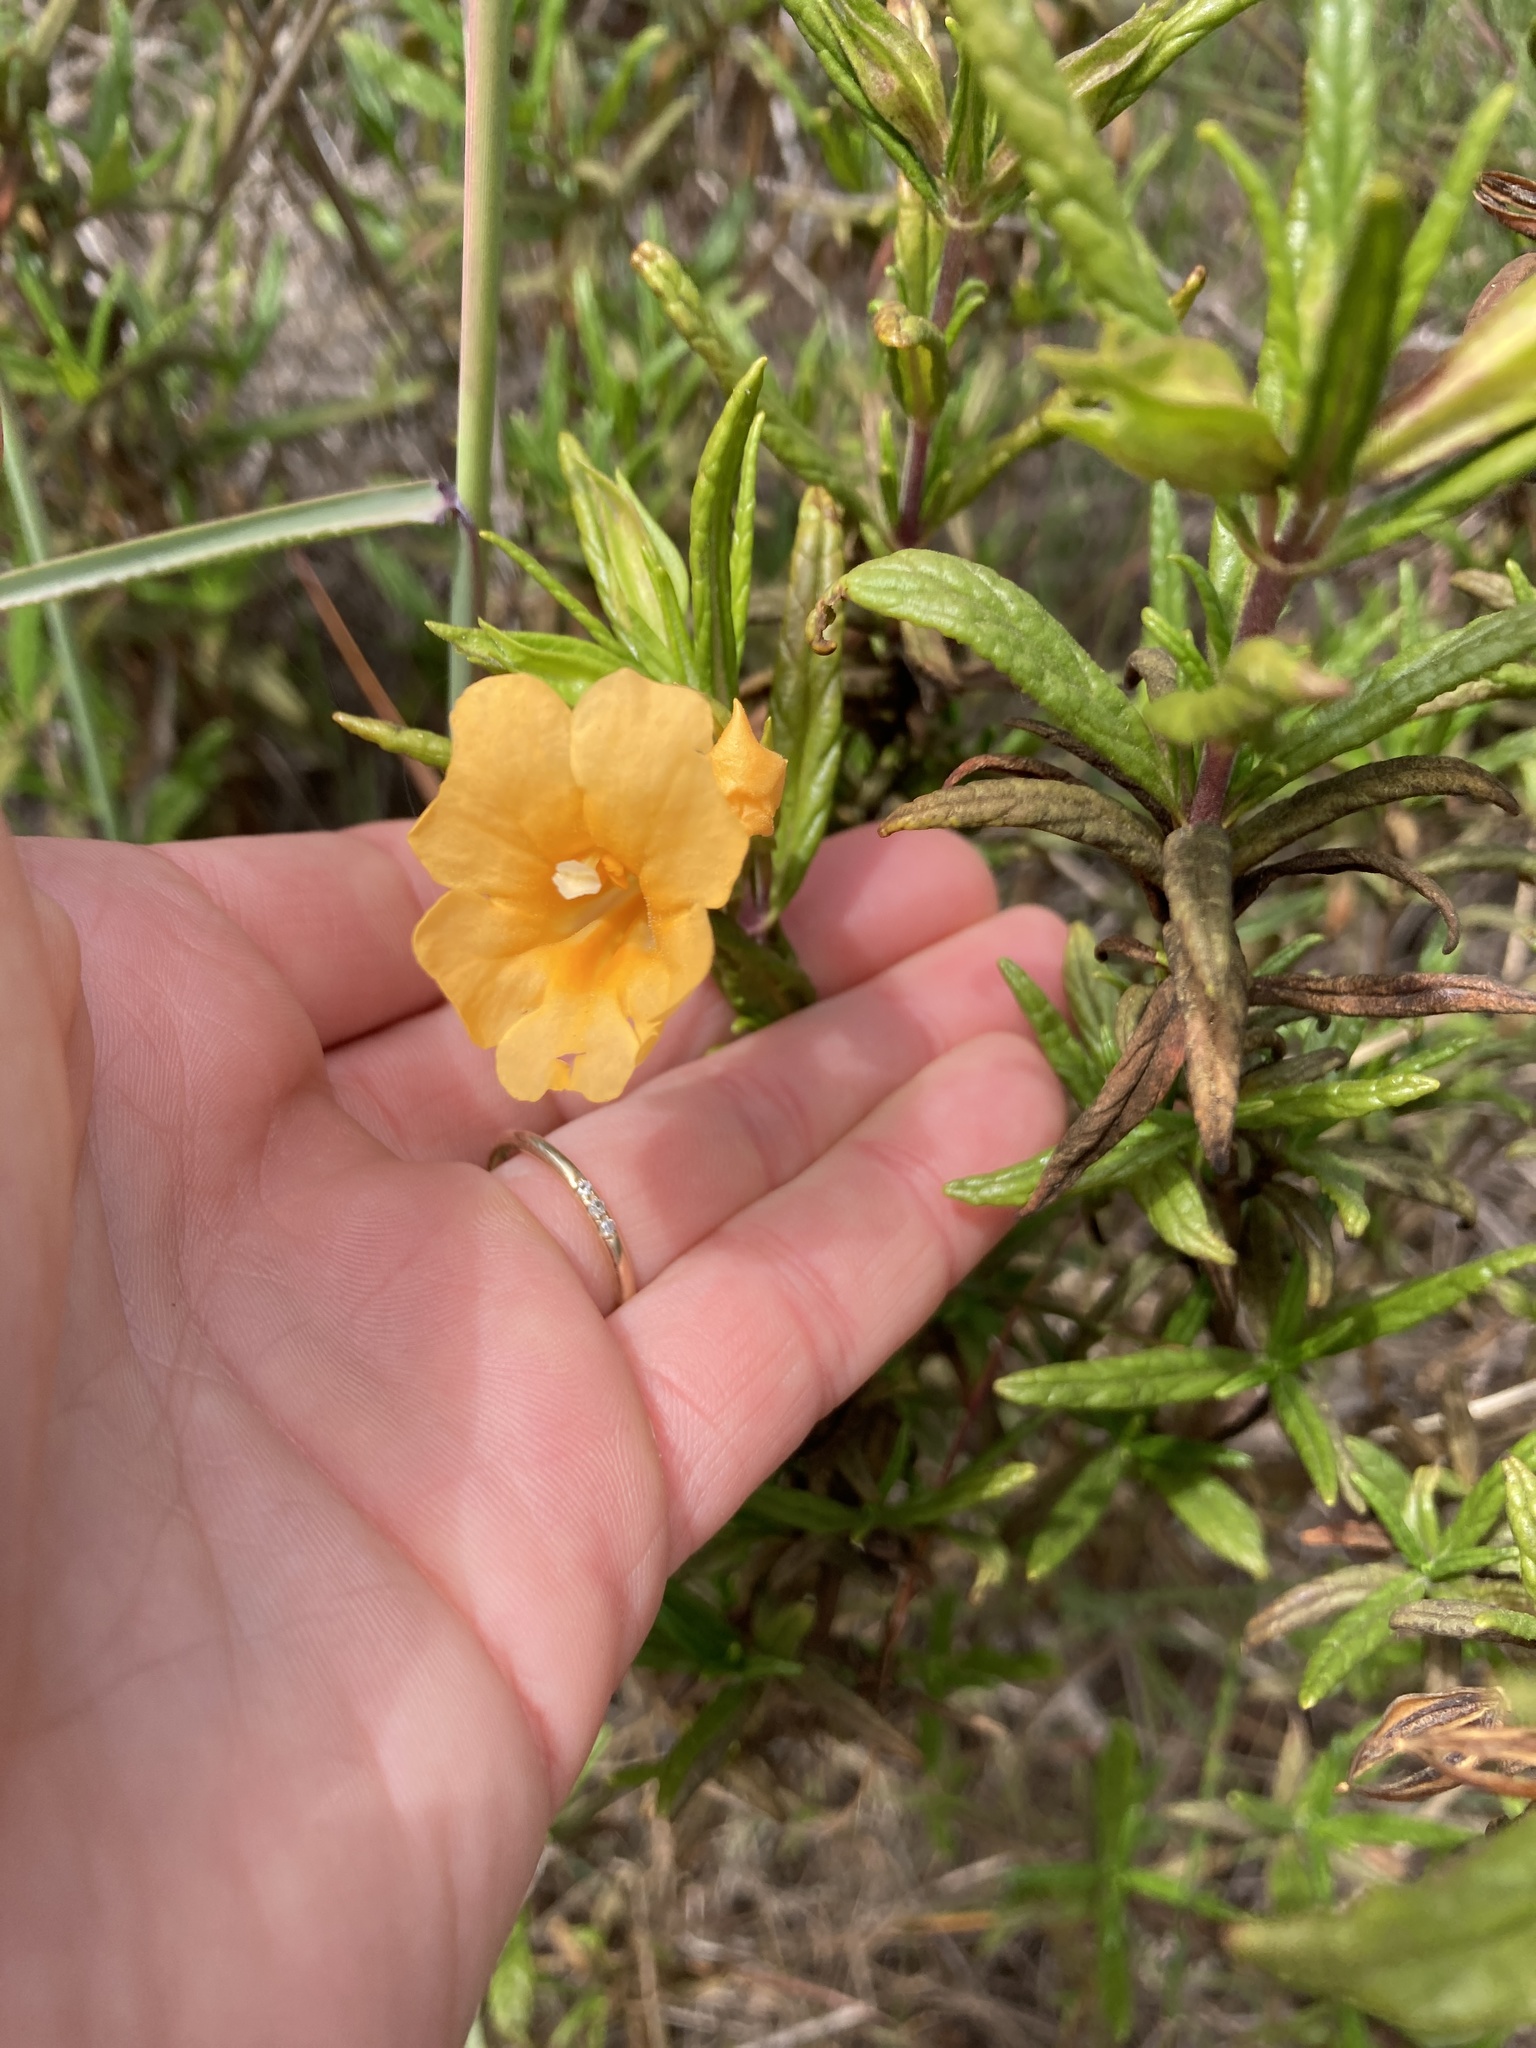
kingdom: Plantae
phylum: Tracheophyta
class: Magnoliopsida
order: Lamiales
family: Phrymaceae
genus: Diplacus
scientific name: Diplacus aurantiacus
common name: Bush monkey-flower
